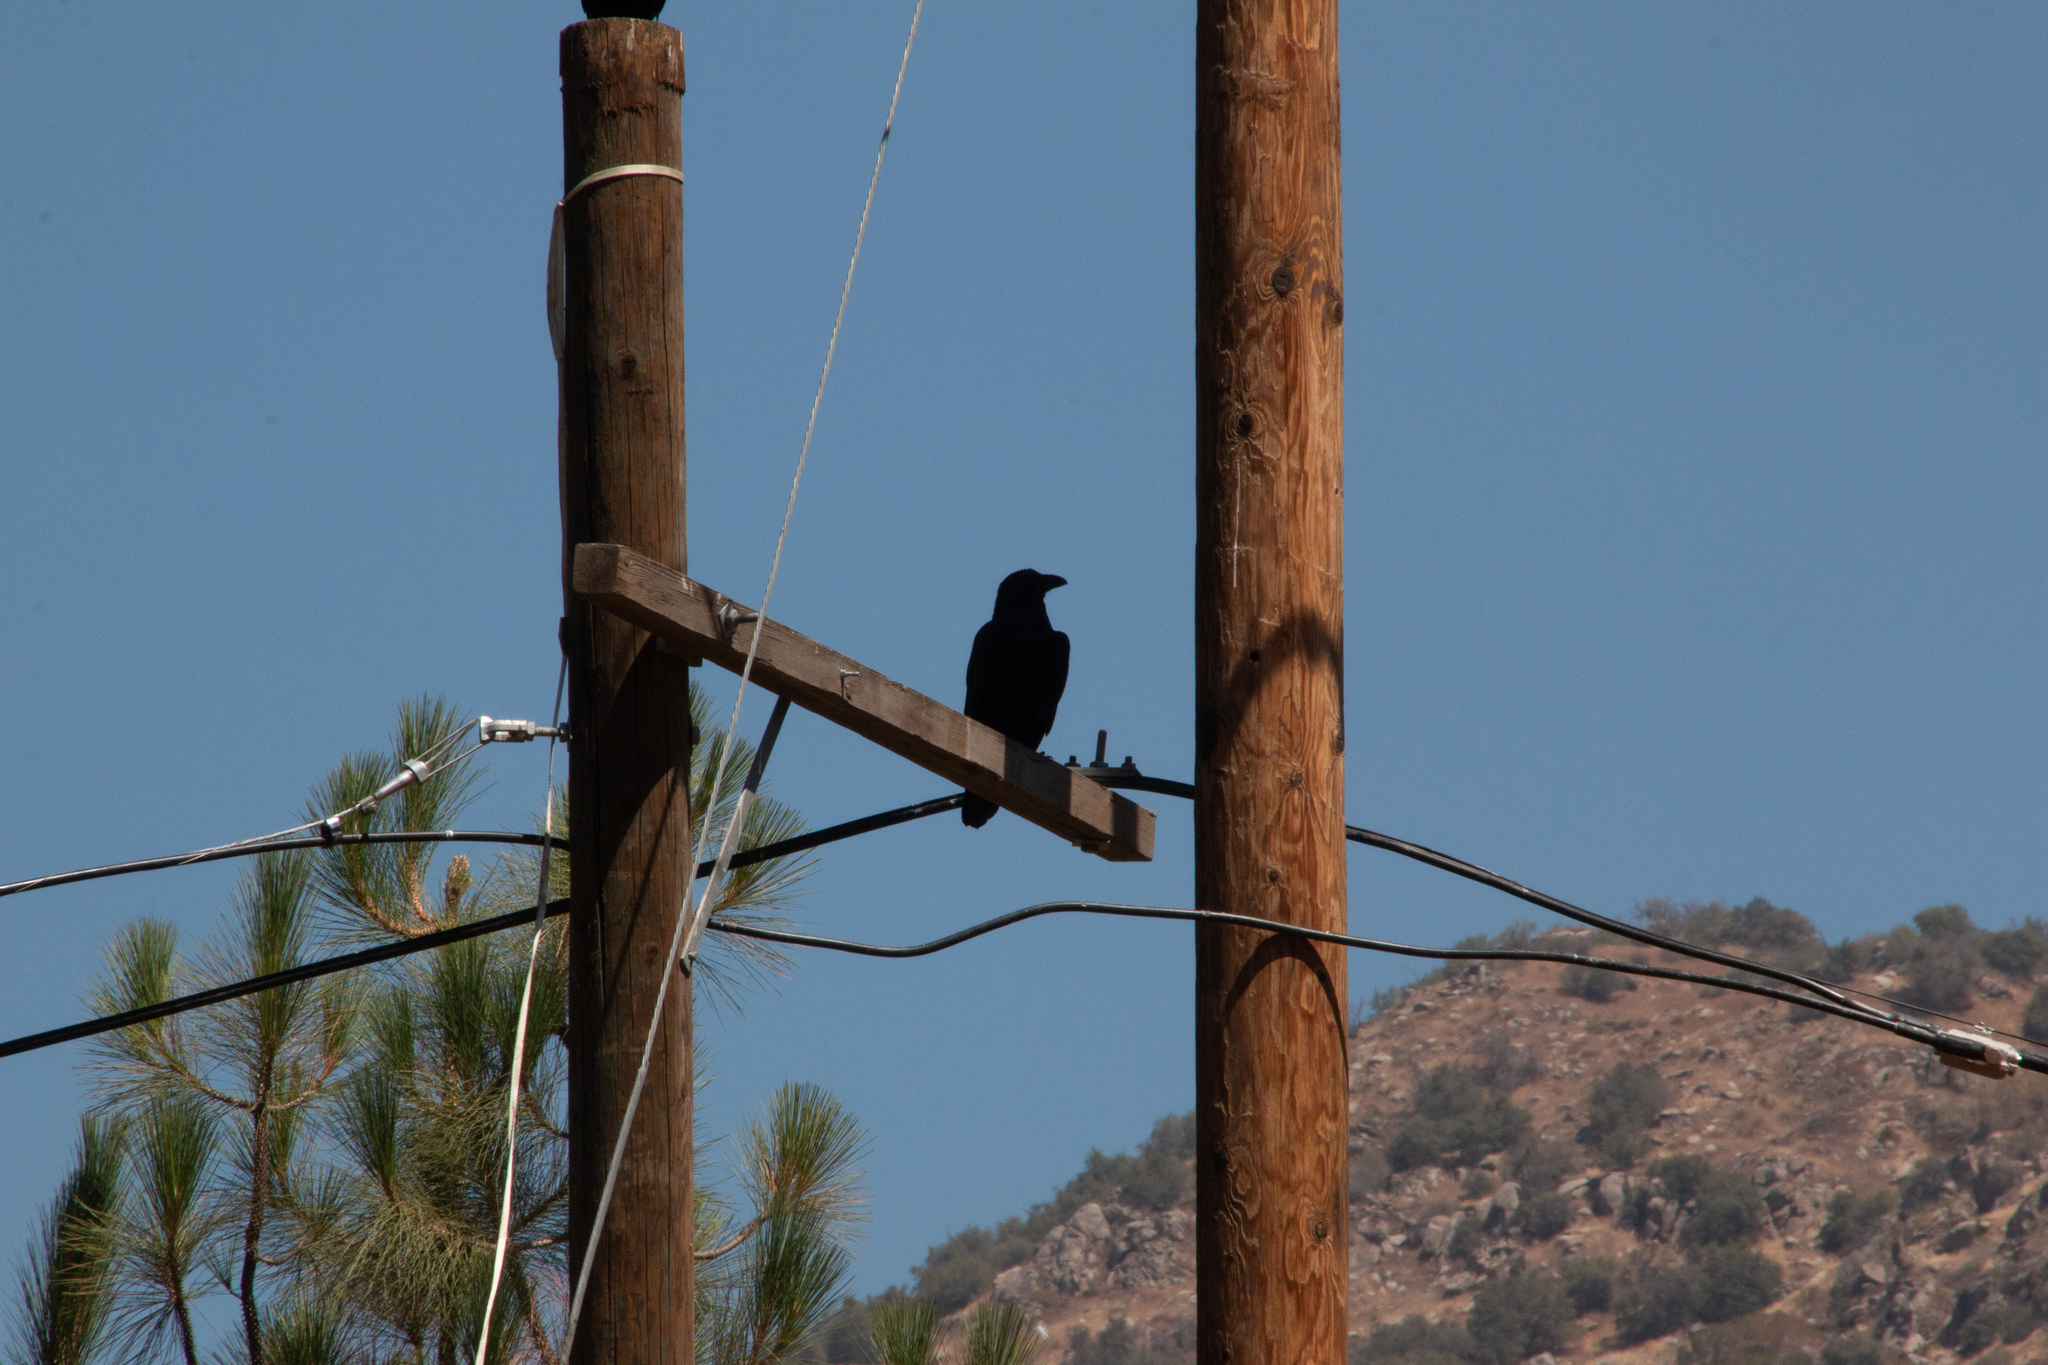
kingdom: Animalia
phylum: Chordata
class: Aves
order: Passeriformes
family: Corvidae
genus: Corvus
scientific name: Corvus corax
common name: Common raven
